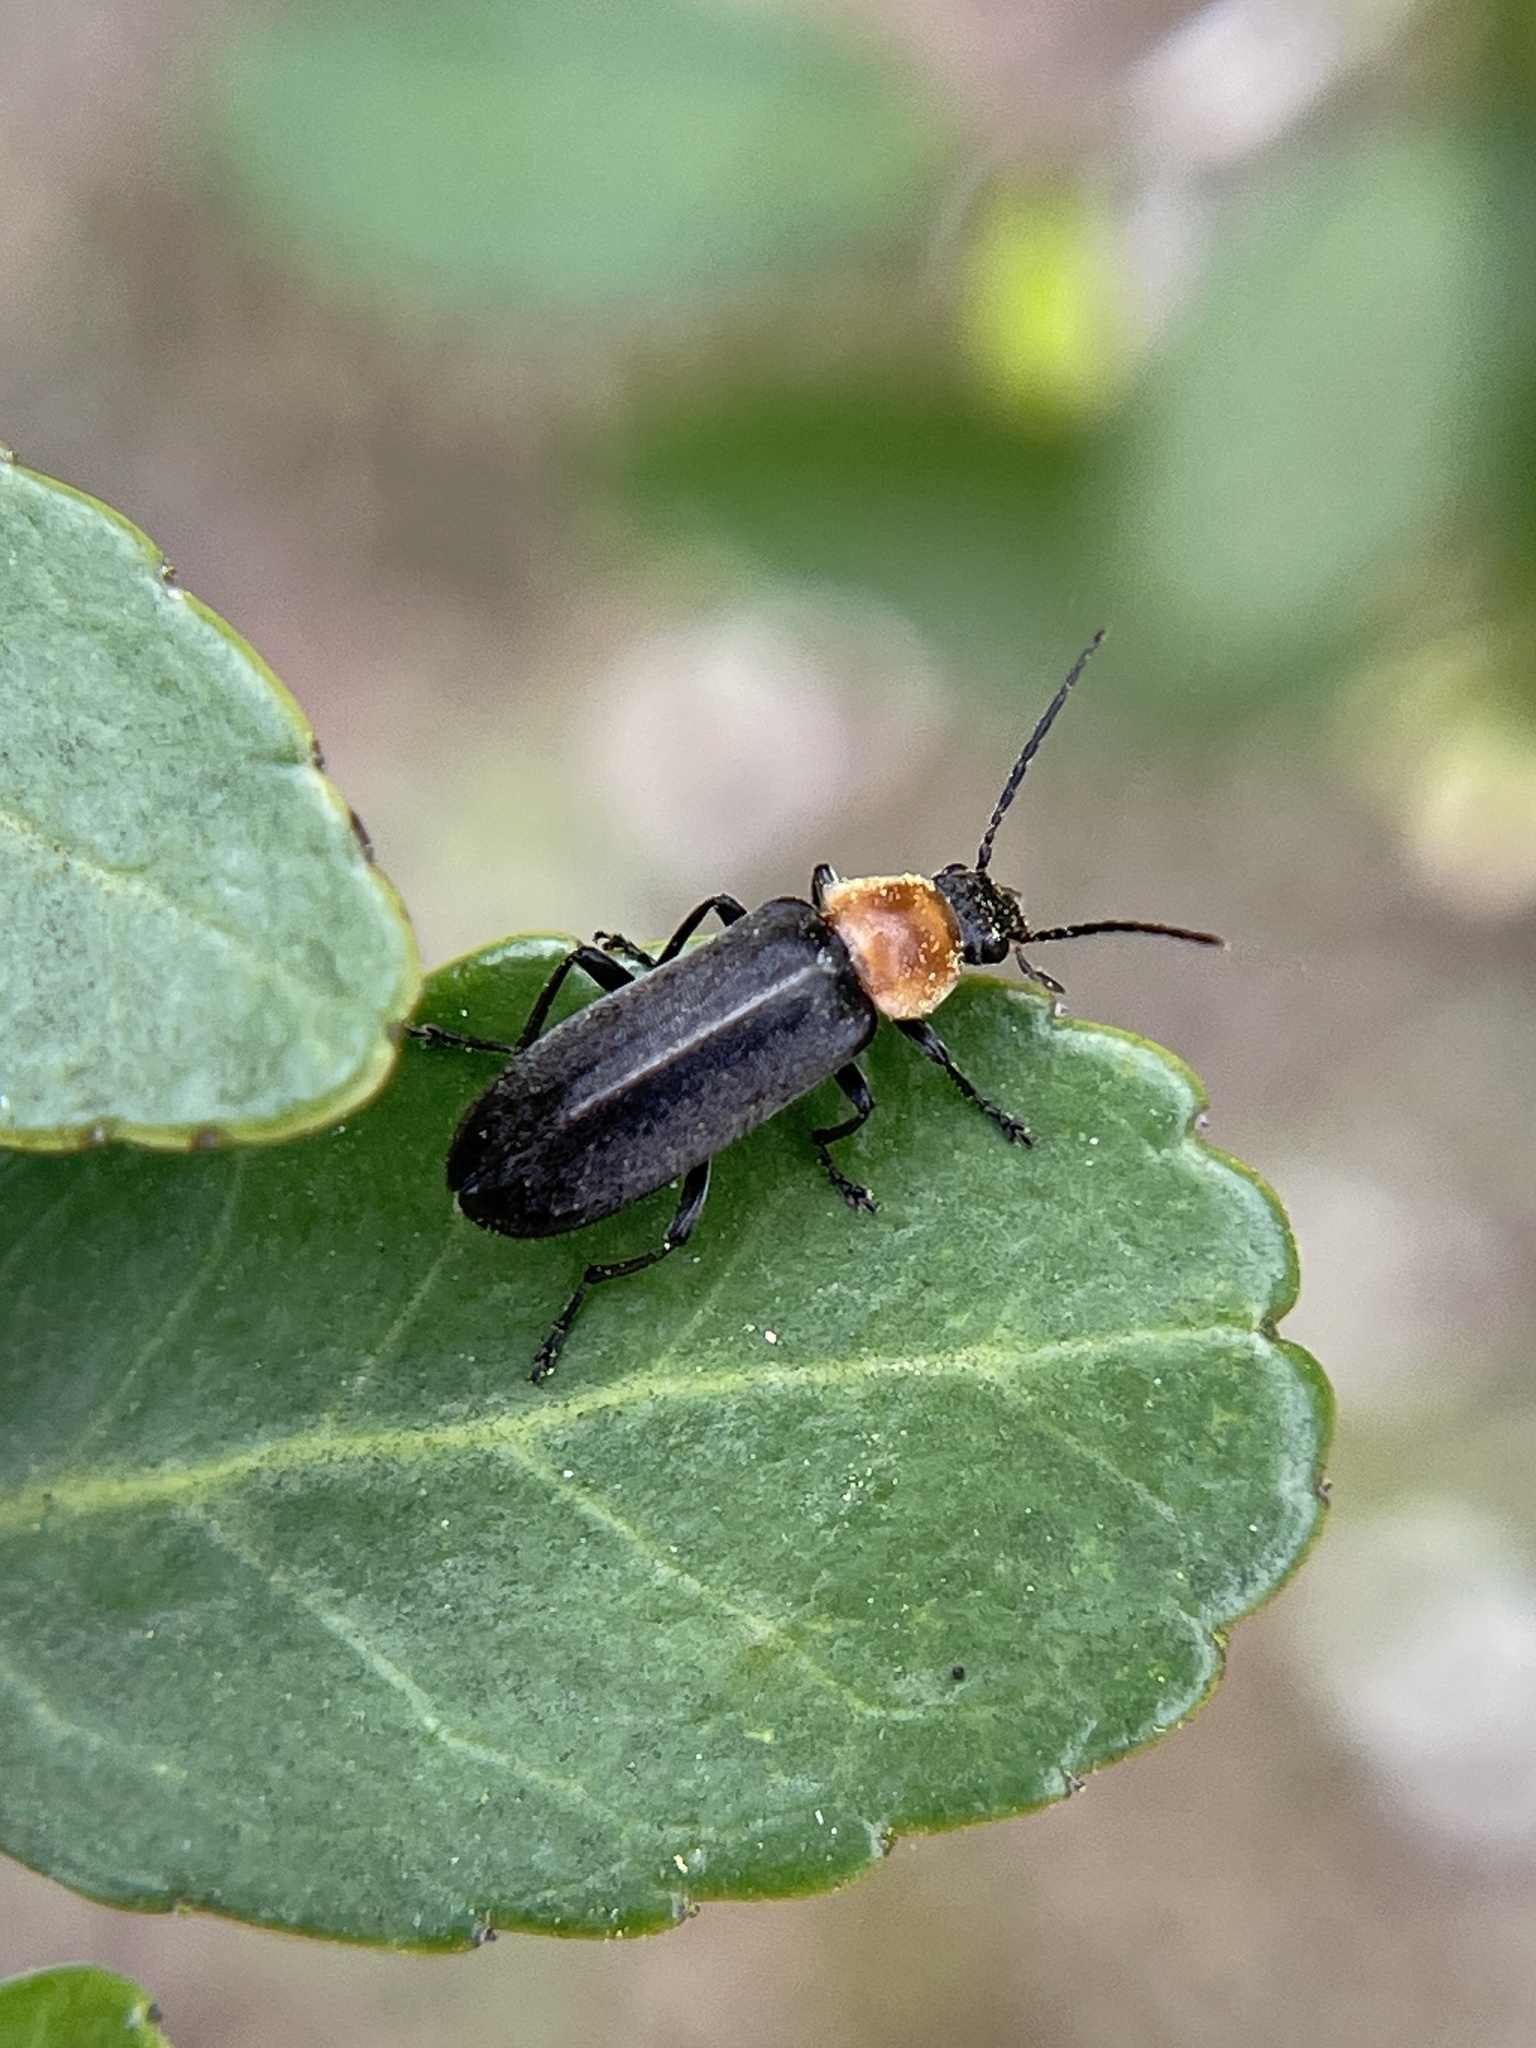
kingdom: Animalia
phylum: Arthropoda
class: Insecta
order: Coleoptera
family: Melandryidae
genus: Osphya
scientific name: Osphya varians
